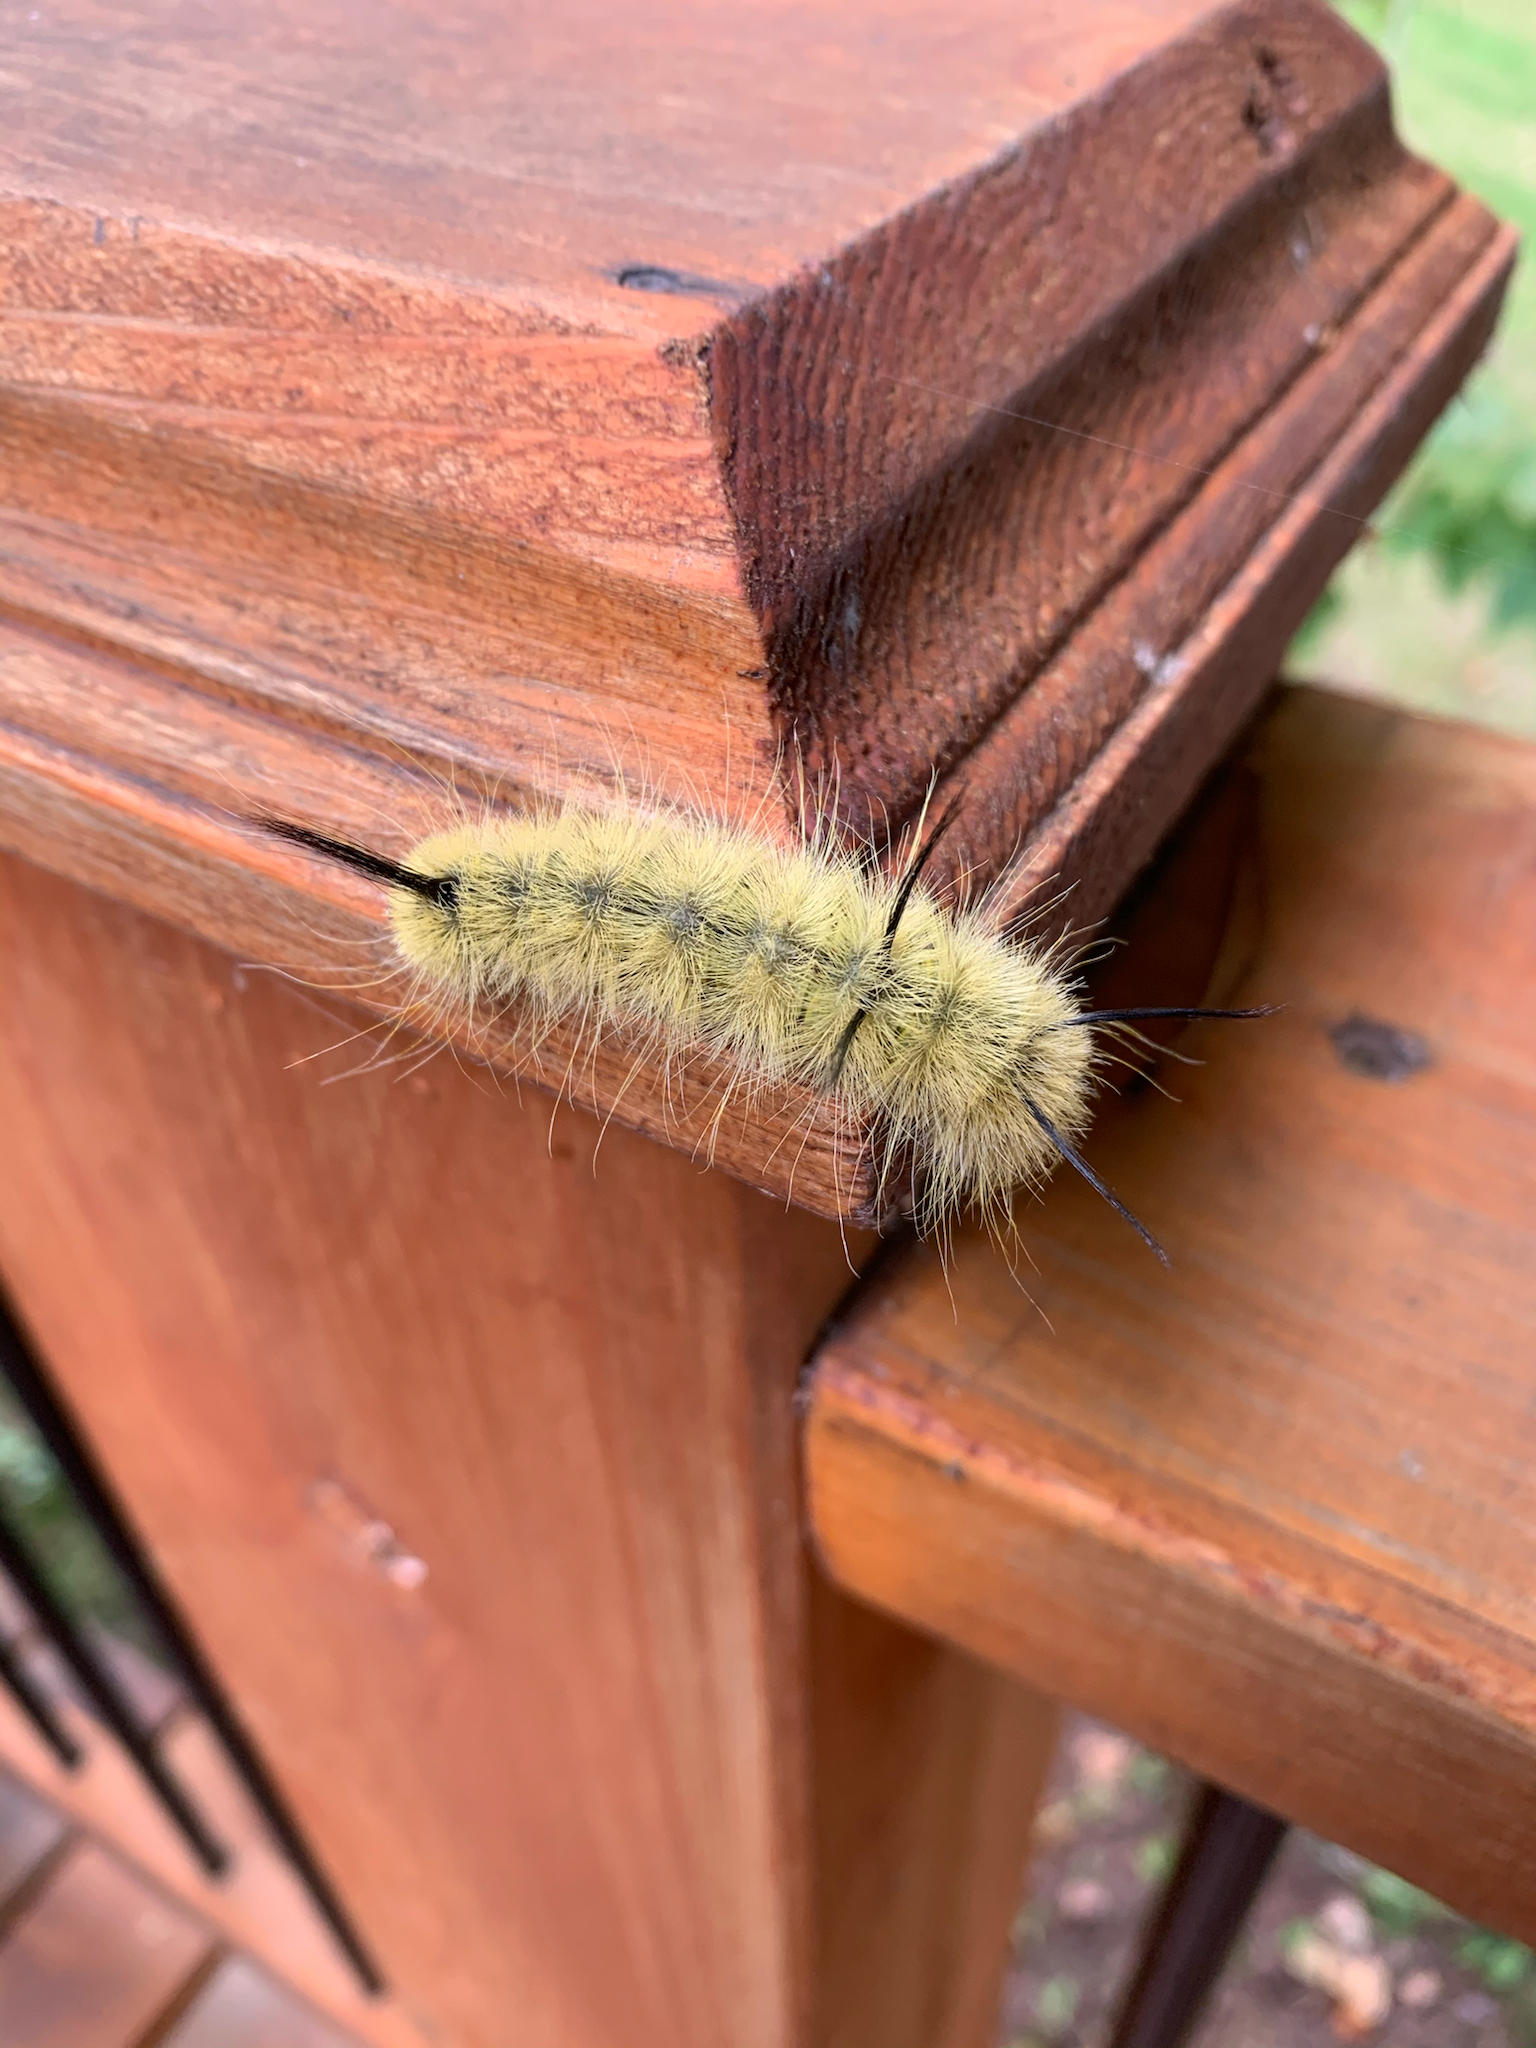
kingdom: Animalia
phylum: Arthropoda
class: Insecta
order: Lepidoptera
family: Noctuidae
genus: Acronicta
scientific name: Acronicta americana
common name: American dagger
